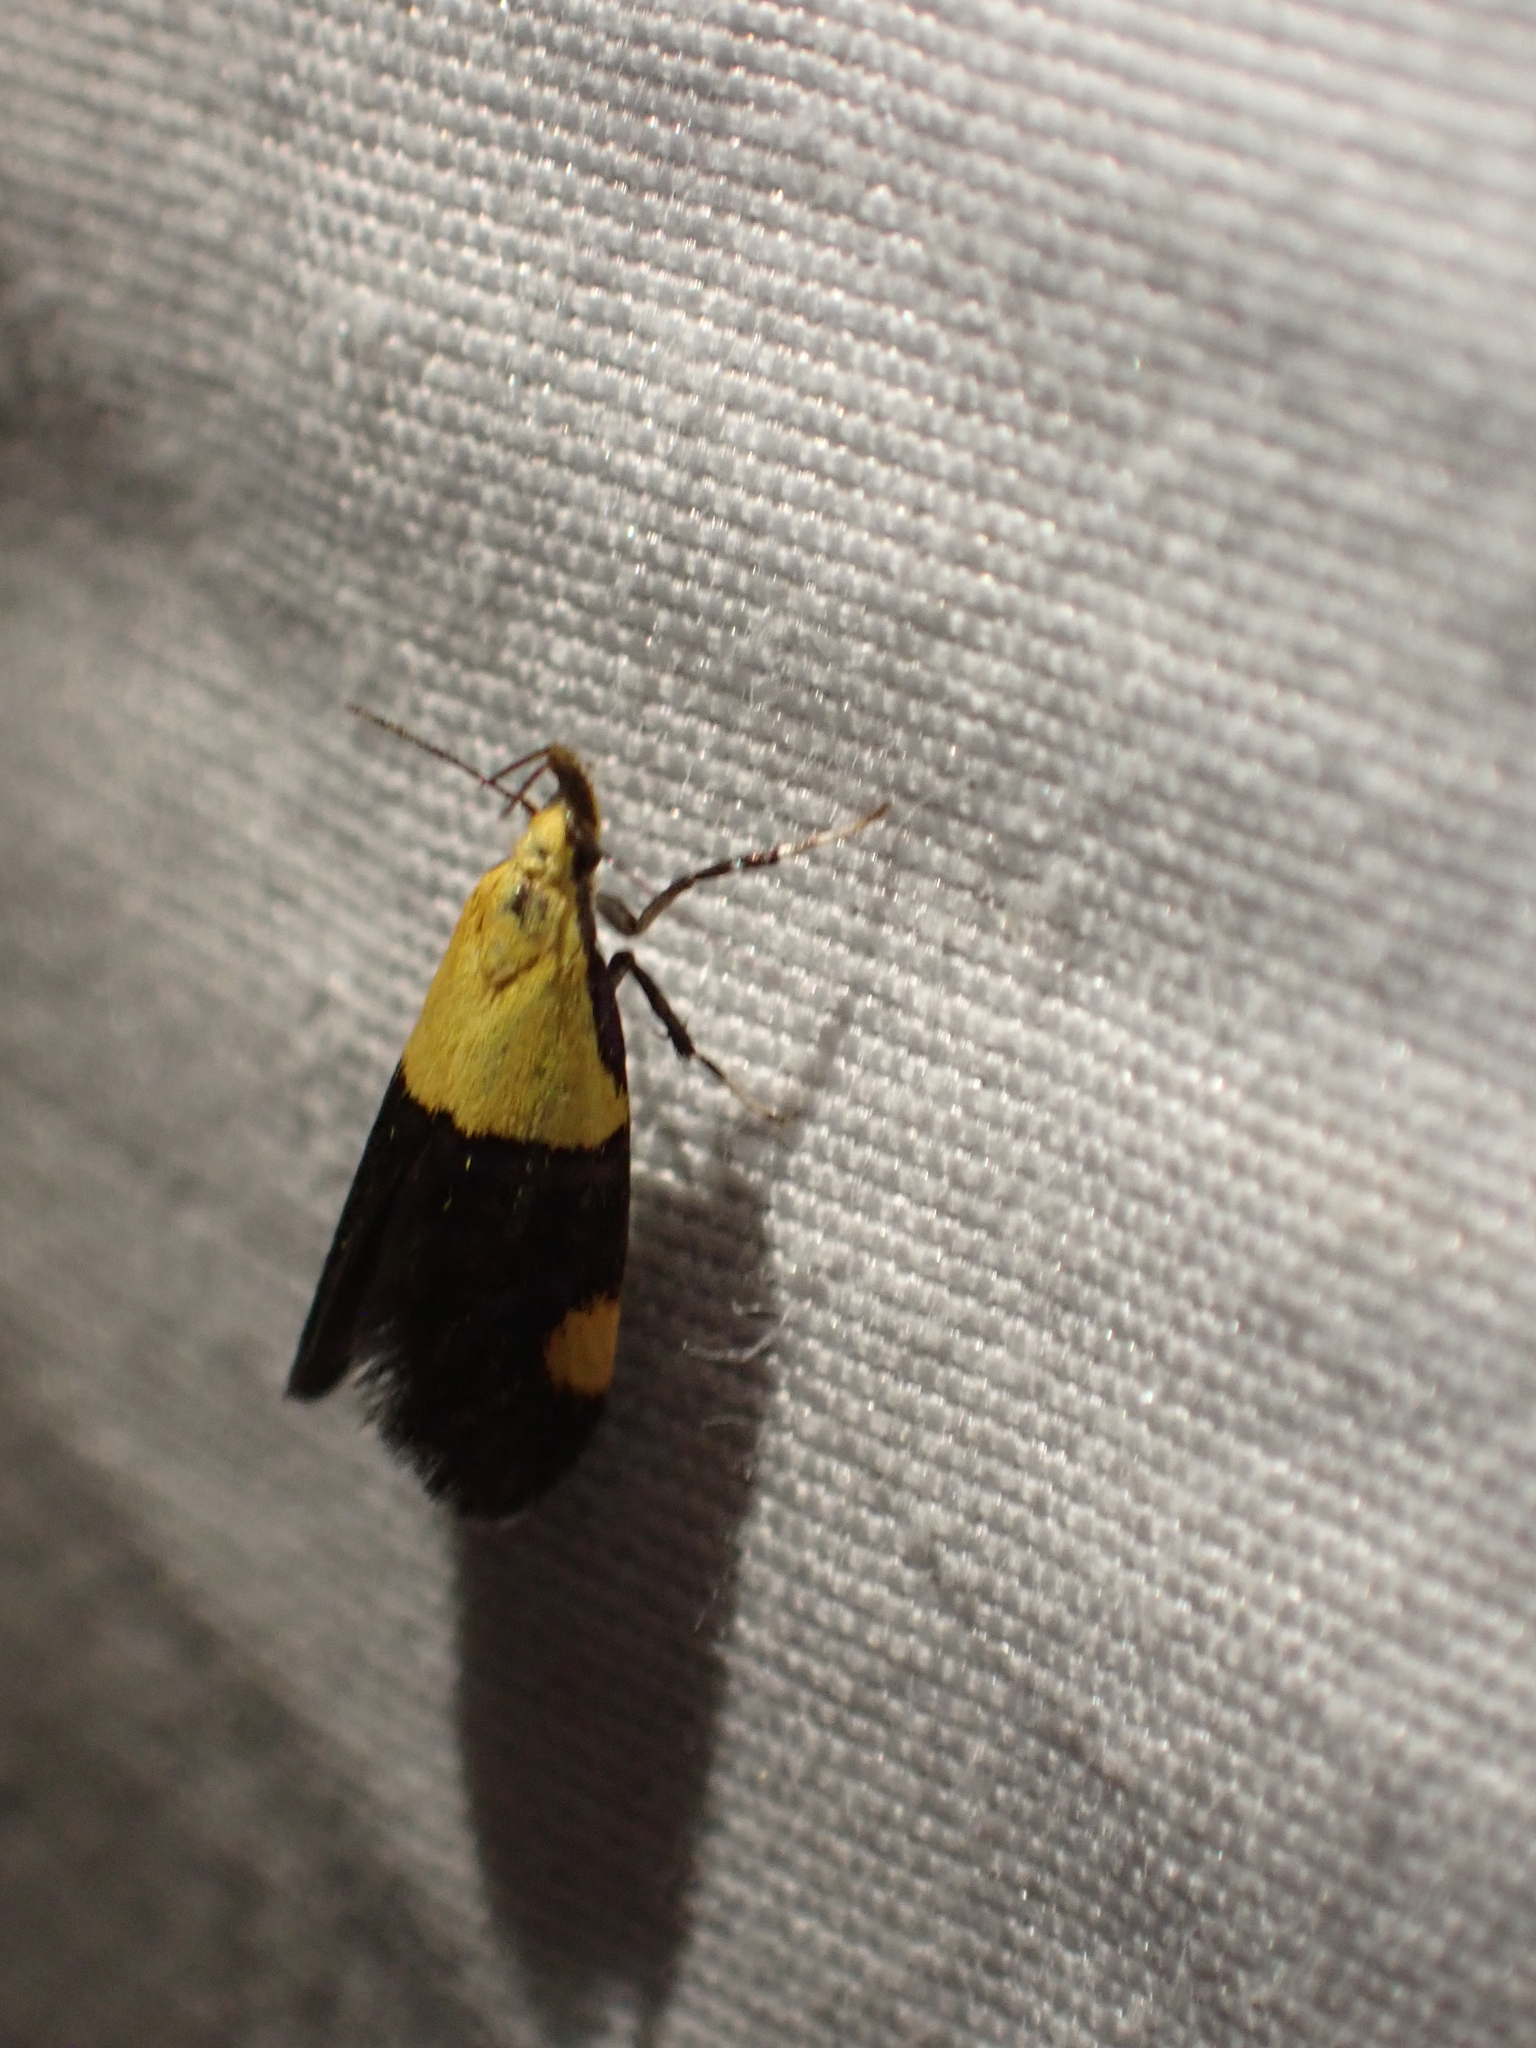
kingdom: Animalia
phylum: Arthropoda
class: Insecta
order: Lepidoptera
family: Oecophoridae
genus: Oecophora
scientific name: Oecophora bractella
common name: Gold-base tubic
